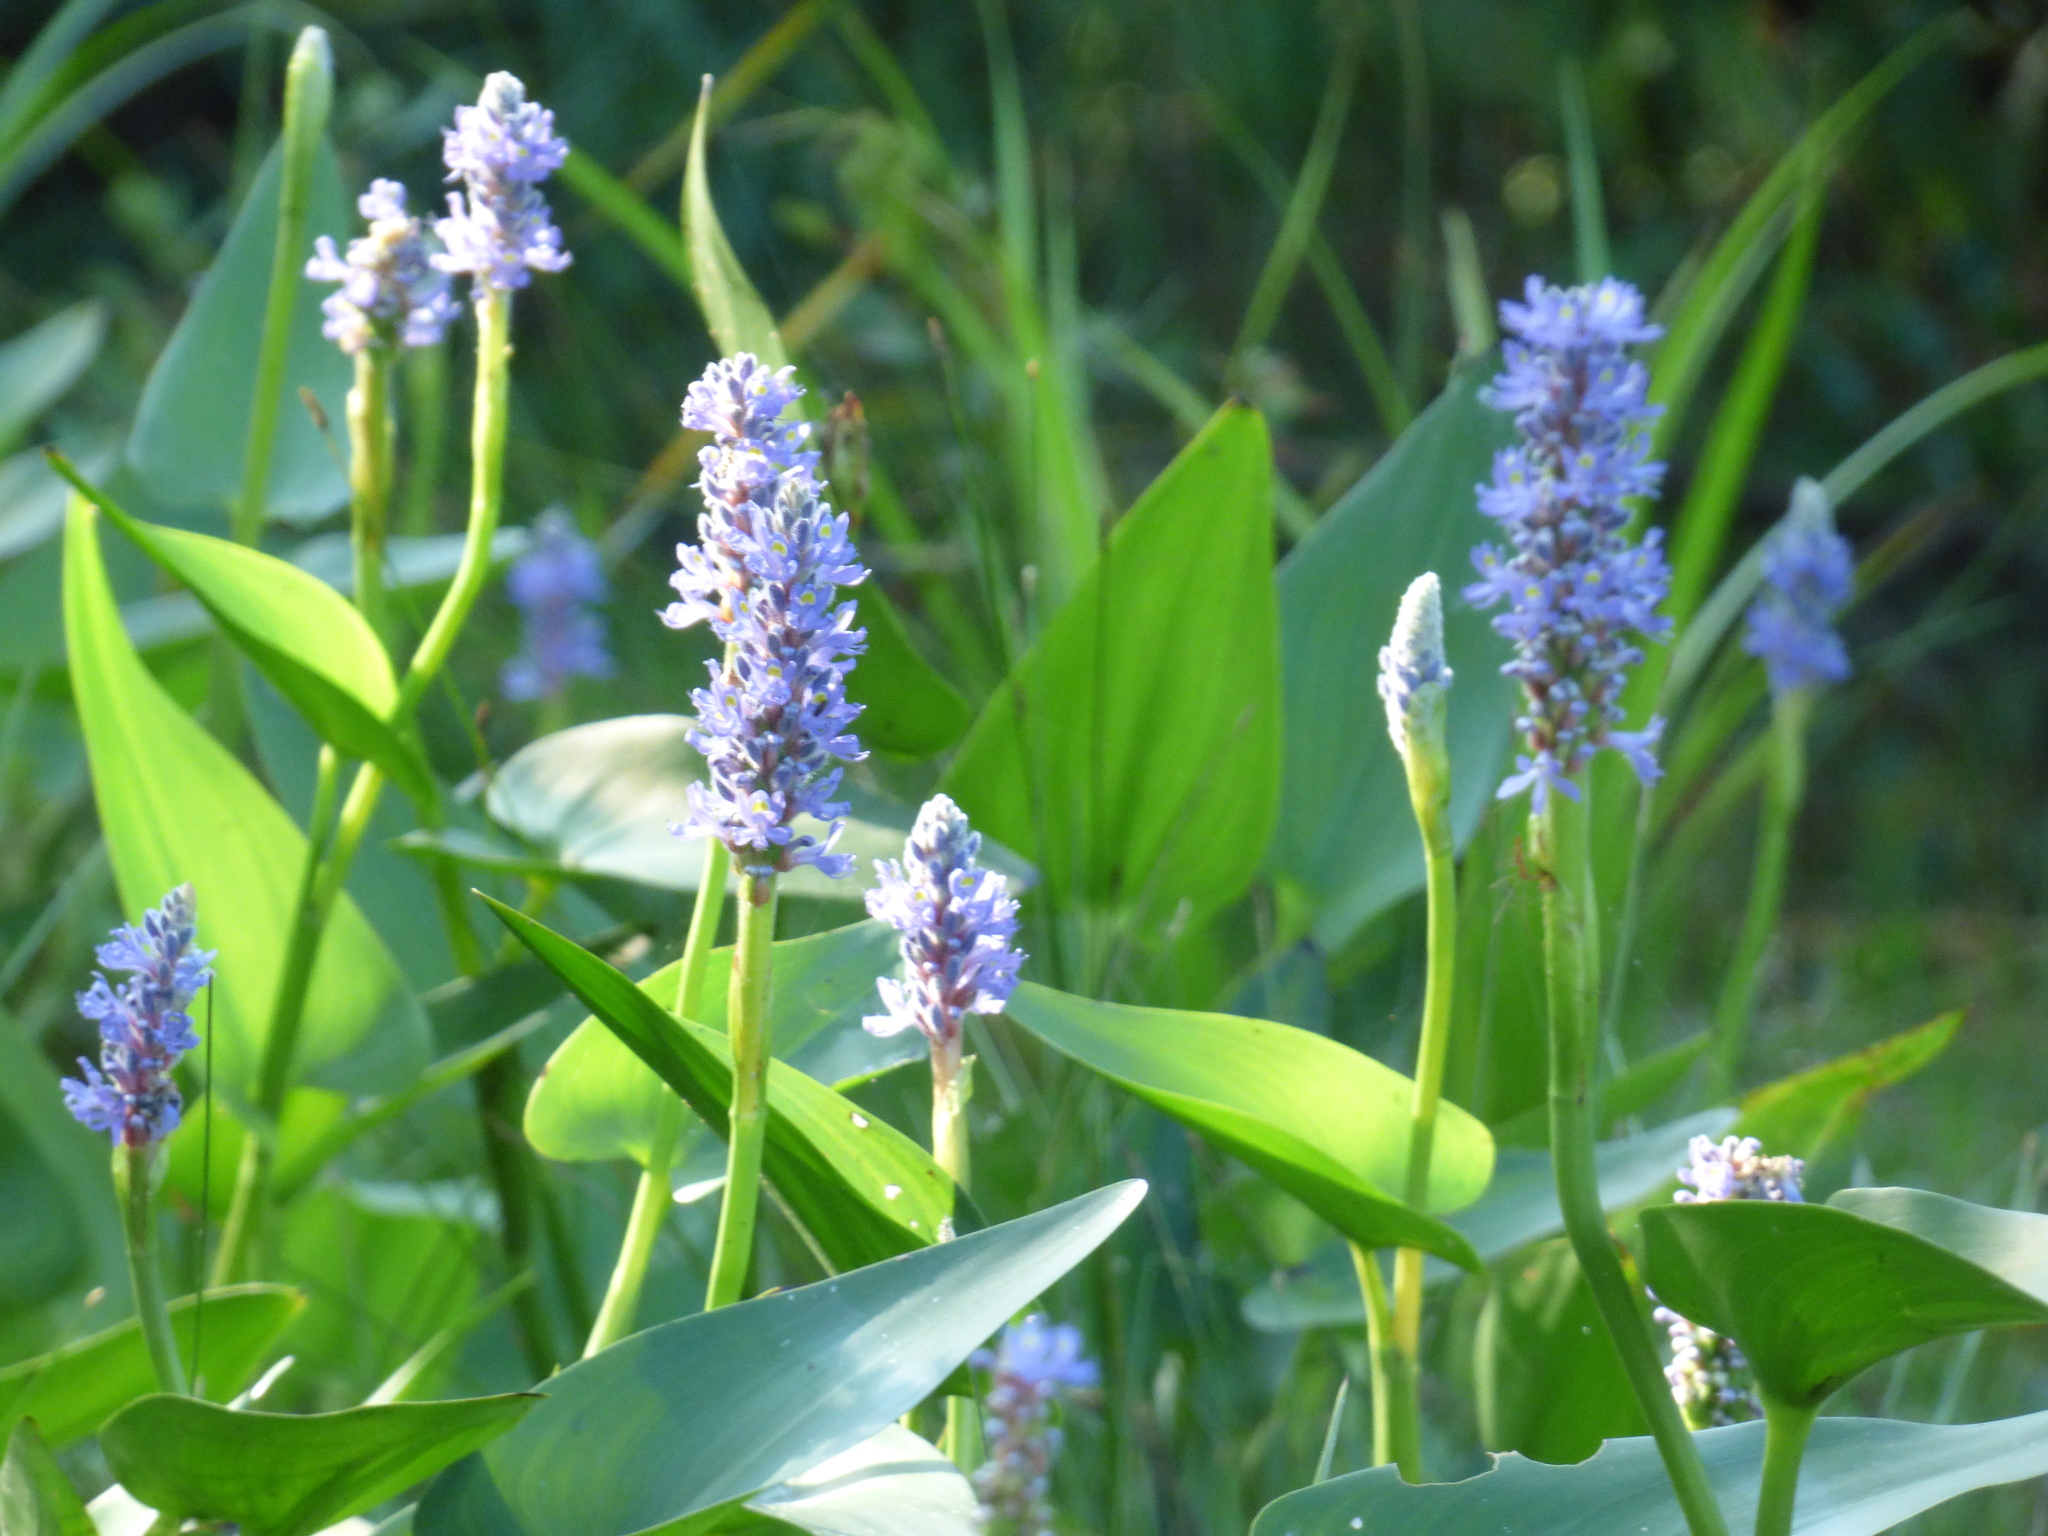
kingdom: Plantae
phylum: Tracheophyta
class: Liliopsida
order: Commelinales
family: Pontederiaceae
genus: Pontederia
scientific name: Pontederia cordata
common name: Pickerelweed
